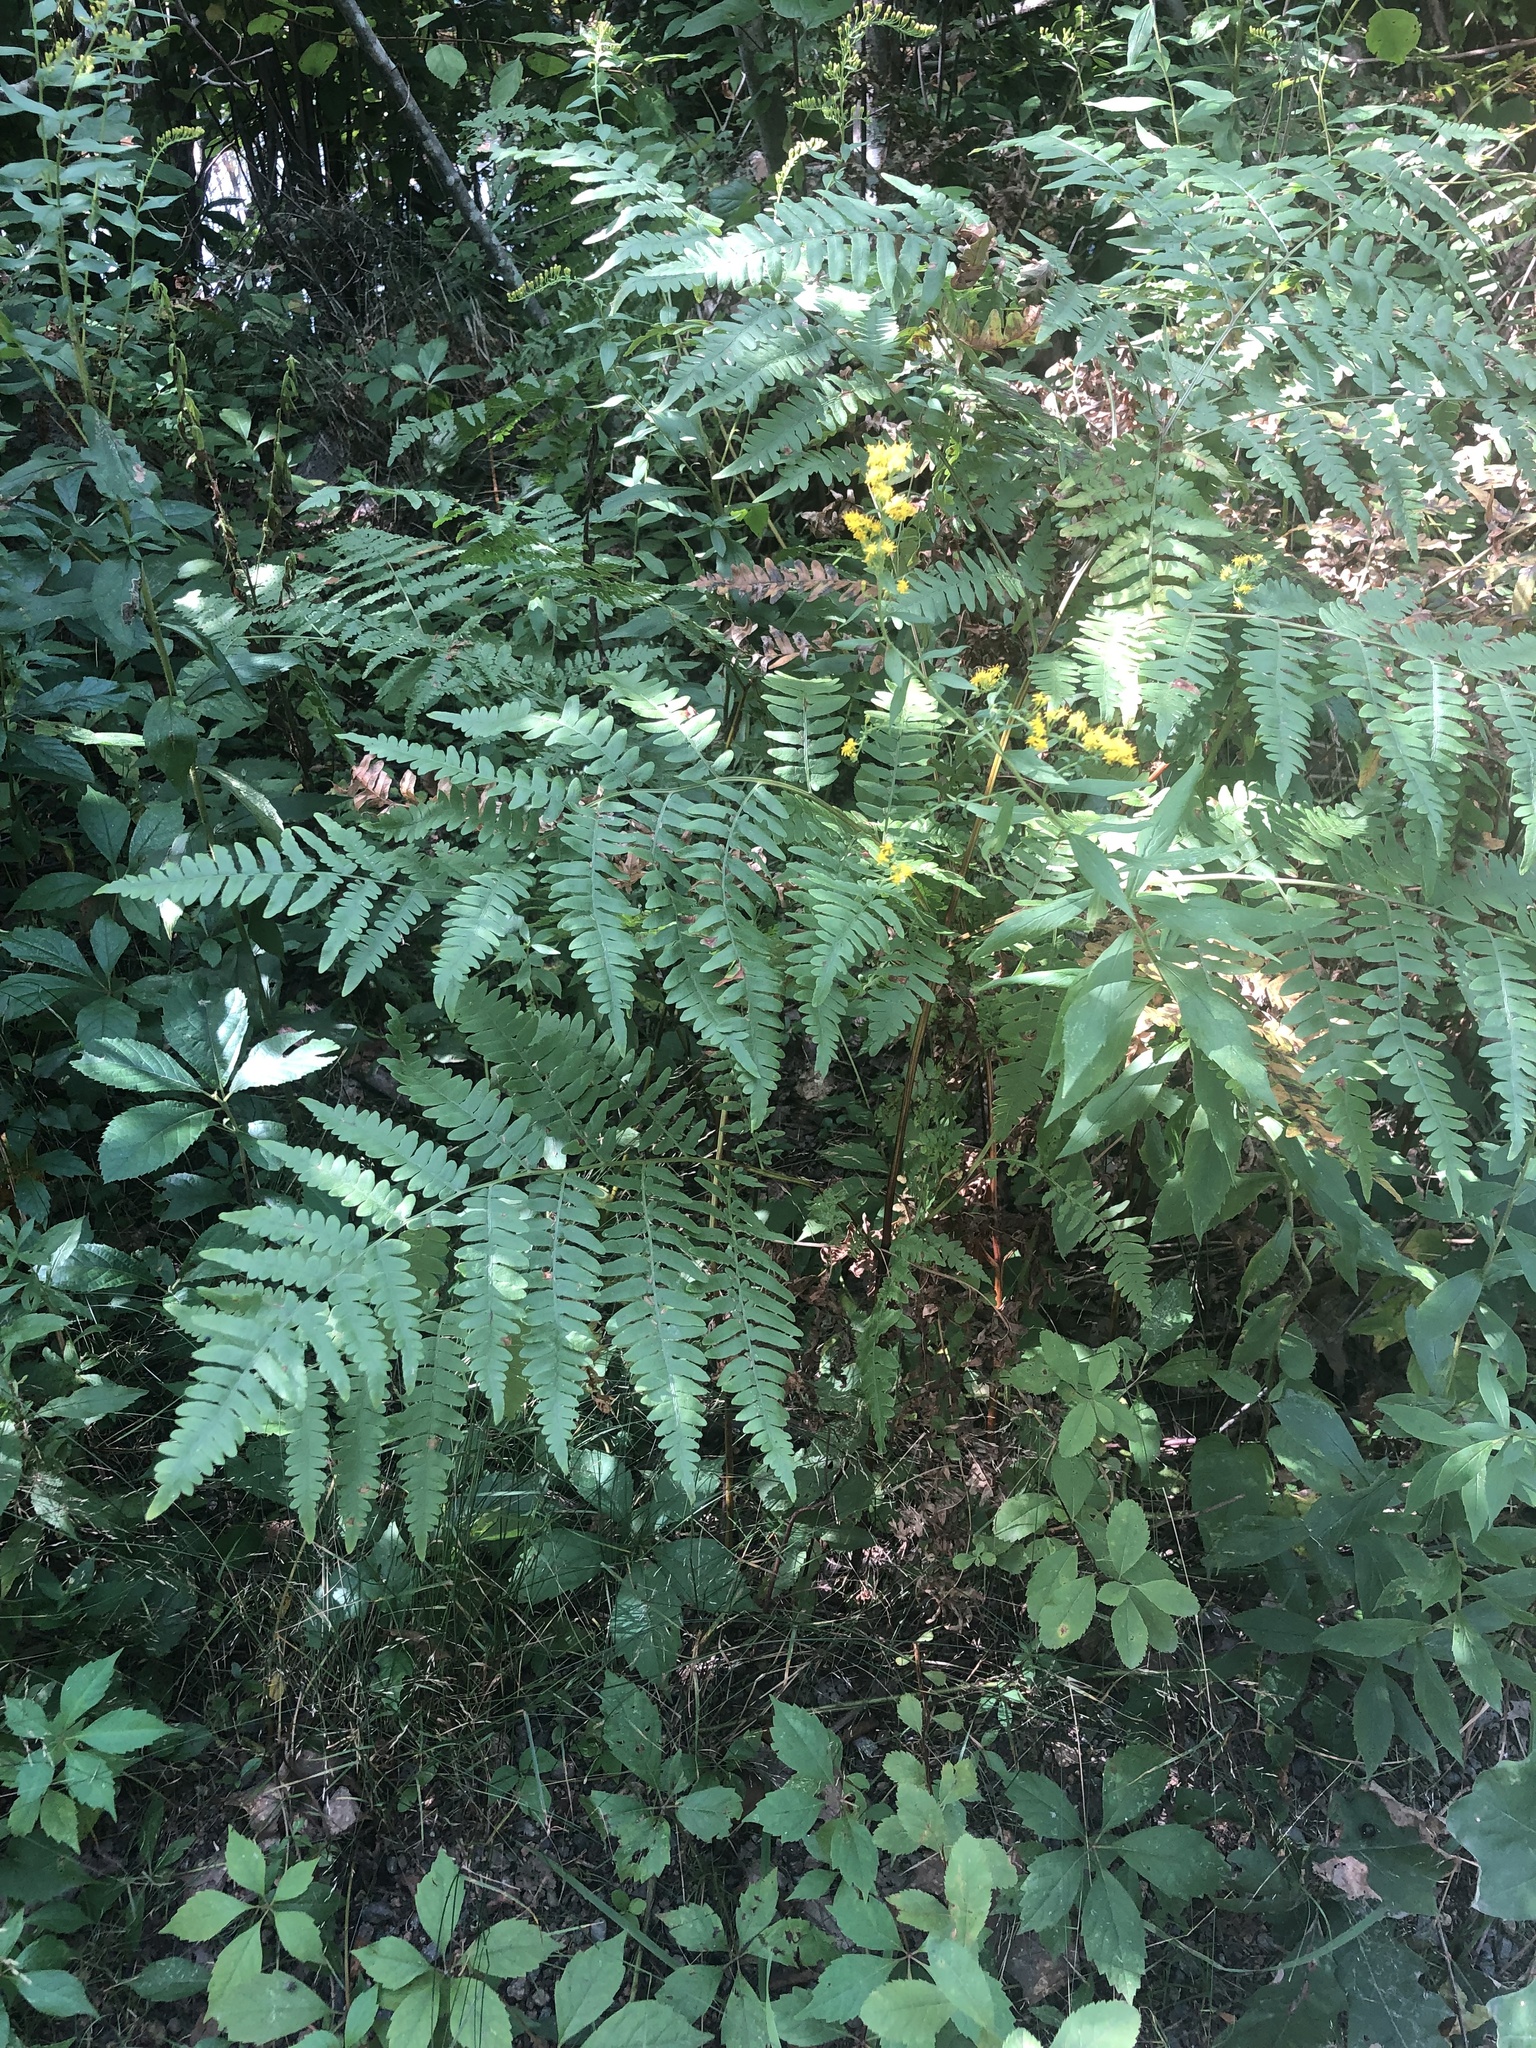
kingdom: Plantae
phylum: Tracheophyta
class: Polypodiopsida
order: Polypodiales
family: Dennstaedtiaceae
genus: Pteridium
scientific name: Pteridium aquilinum
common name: Bracken
